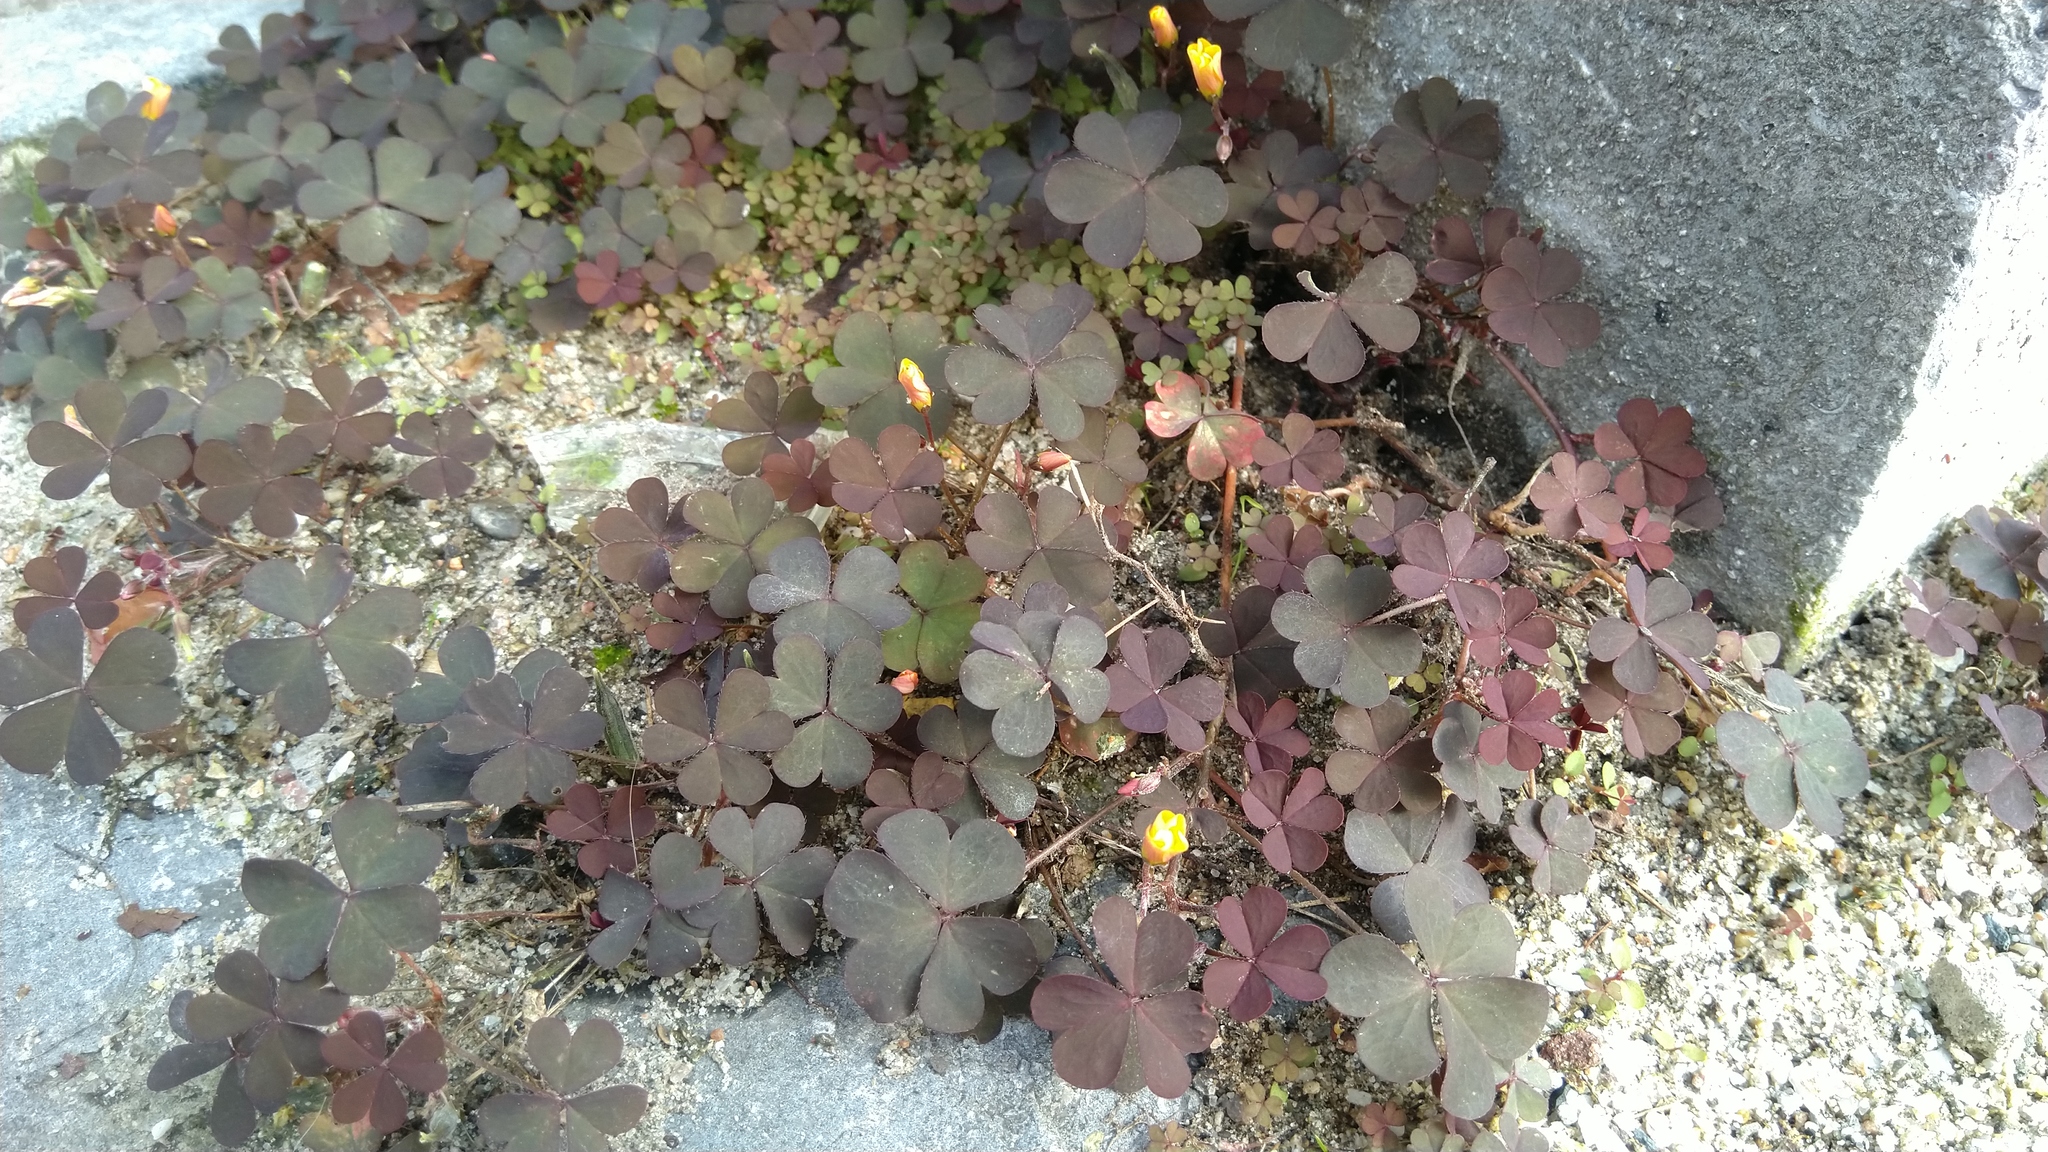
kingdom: Plantae
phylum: Tracheophyta
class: Magnoliopsida
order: Oxalidales
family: Oxalidaceae
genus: Oxalis
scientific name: Oxalis corniculata
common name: Procumbent yellow-sorrel
